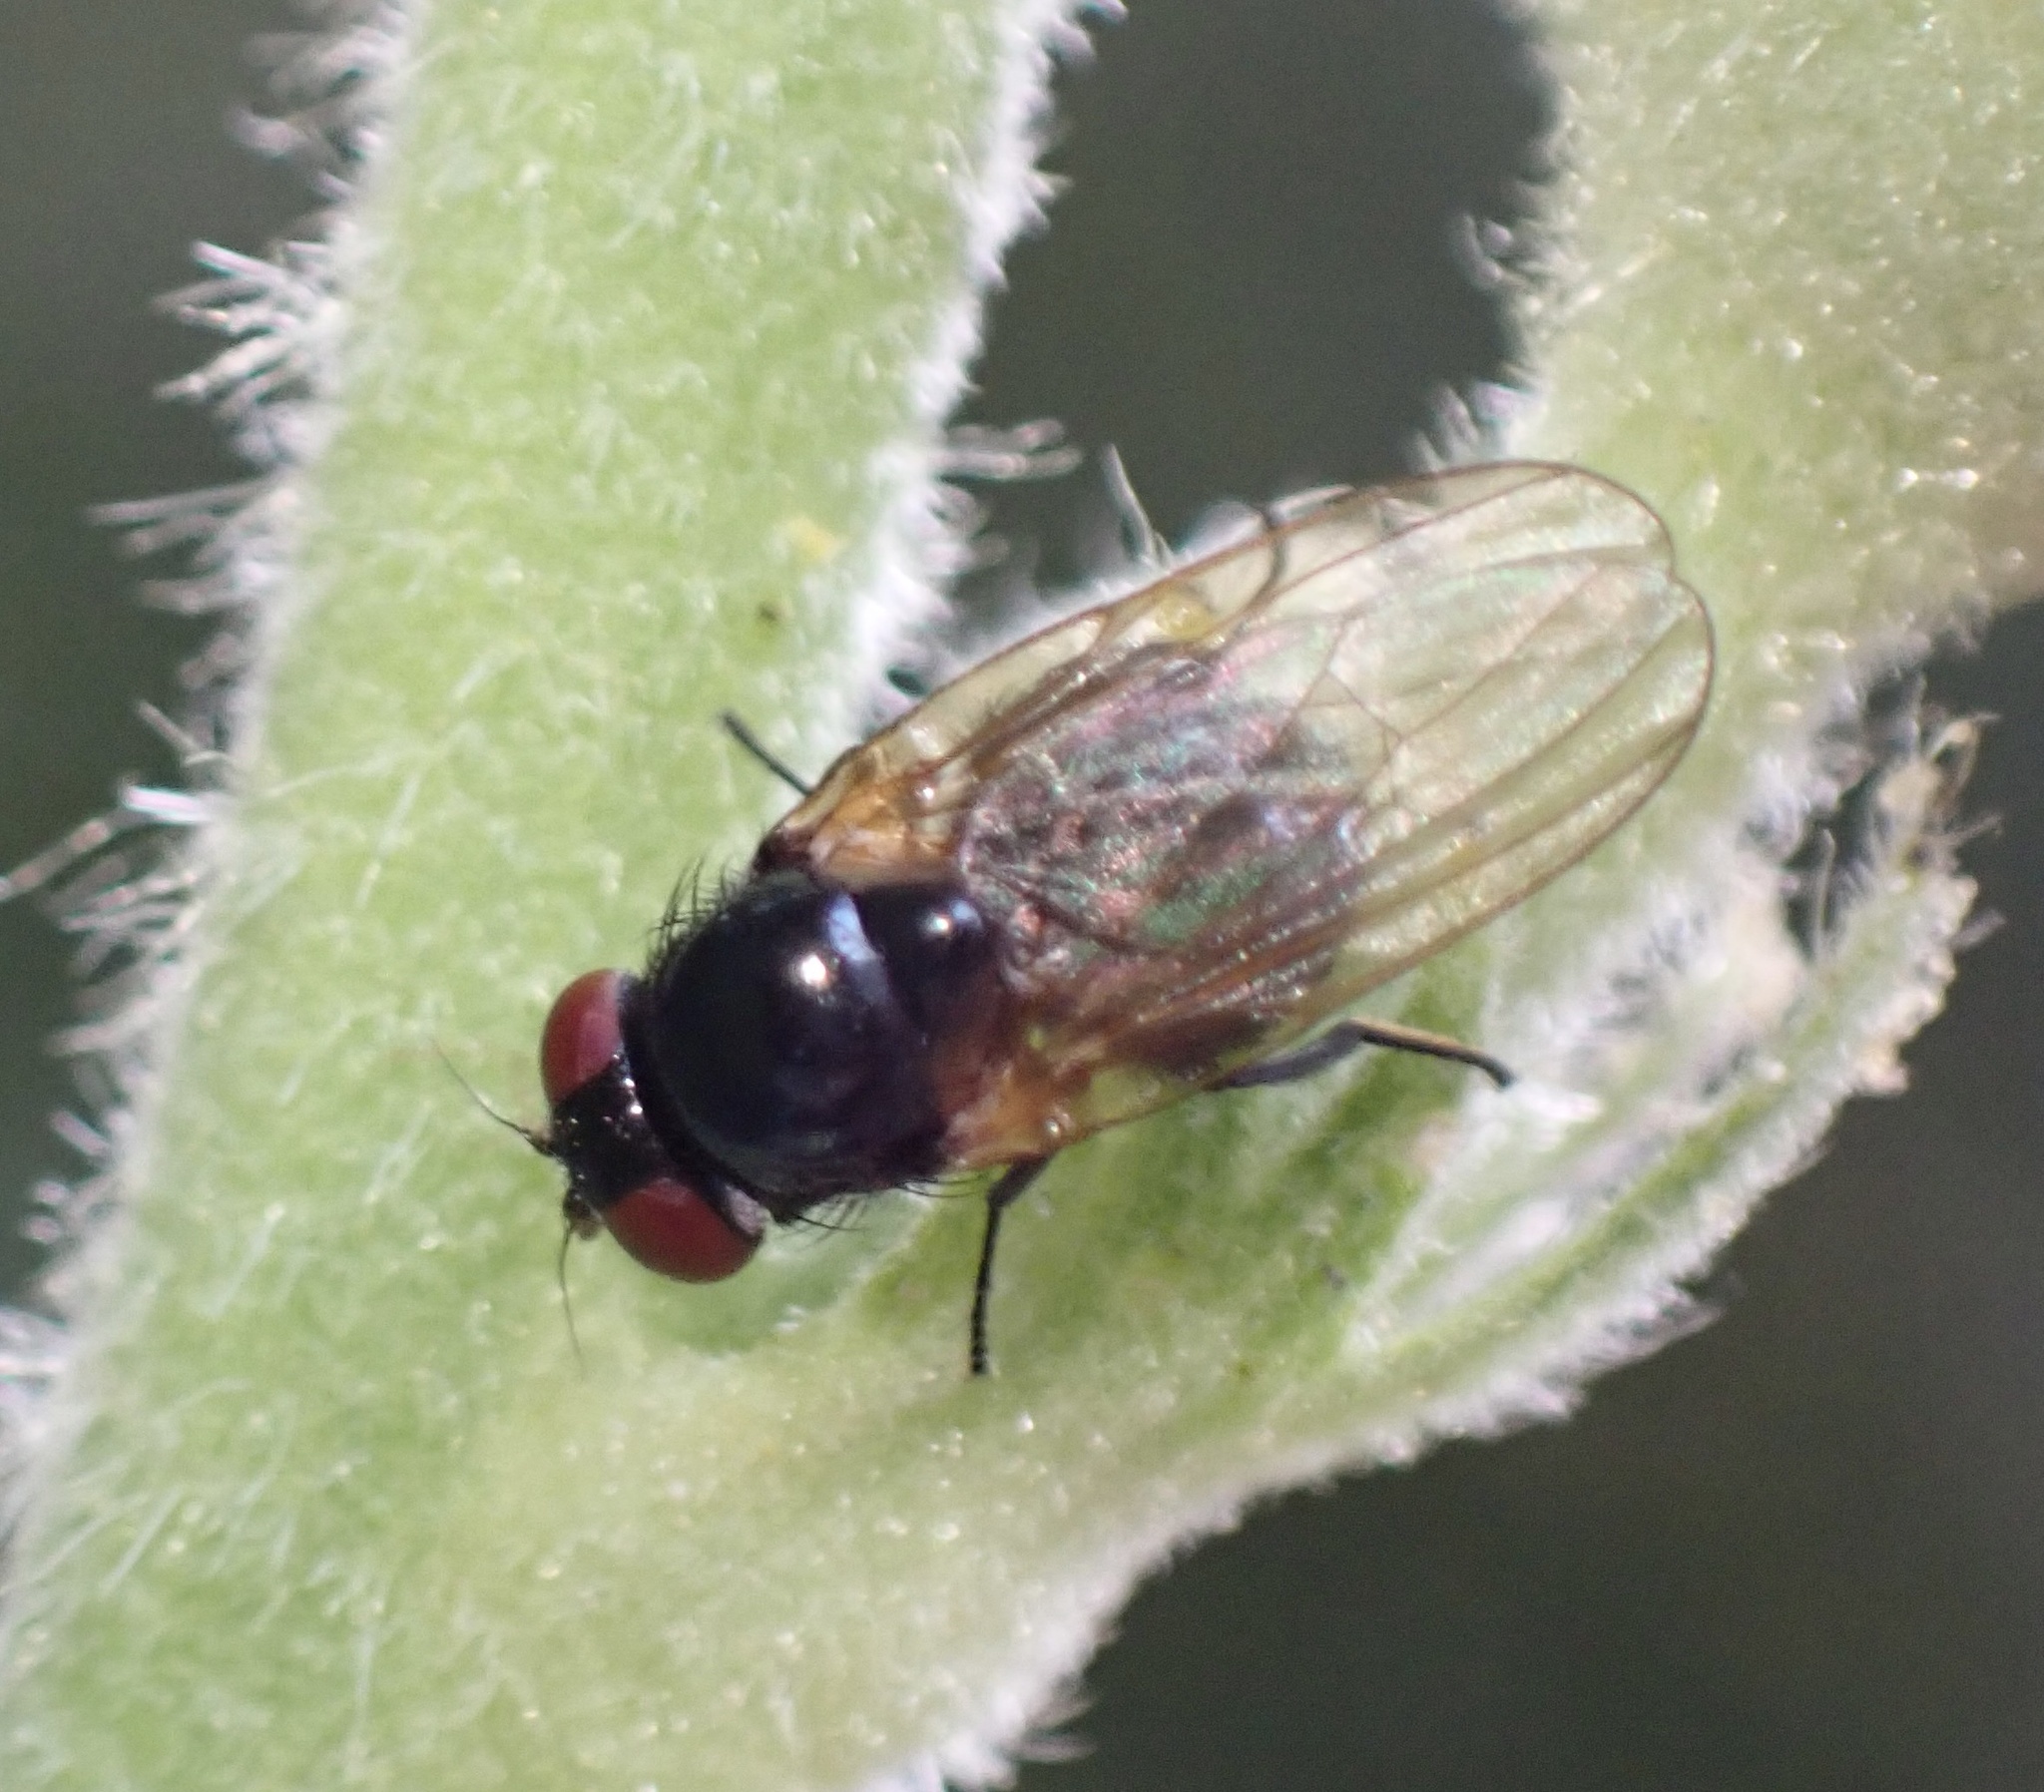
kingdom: Animalia
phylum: Arthropoda
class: Insecta
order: Diptera
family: Lonchaeidae
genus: Silba
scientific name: Silba fumosa
